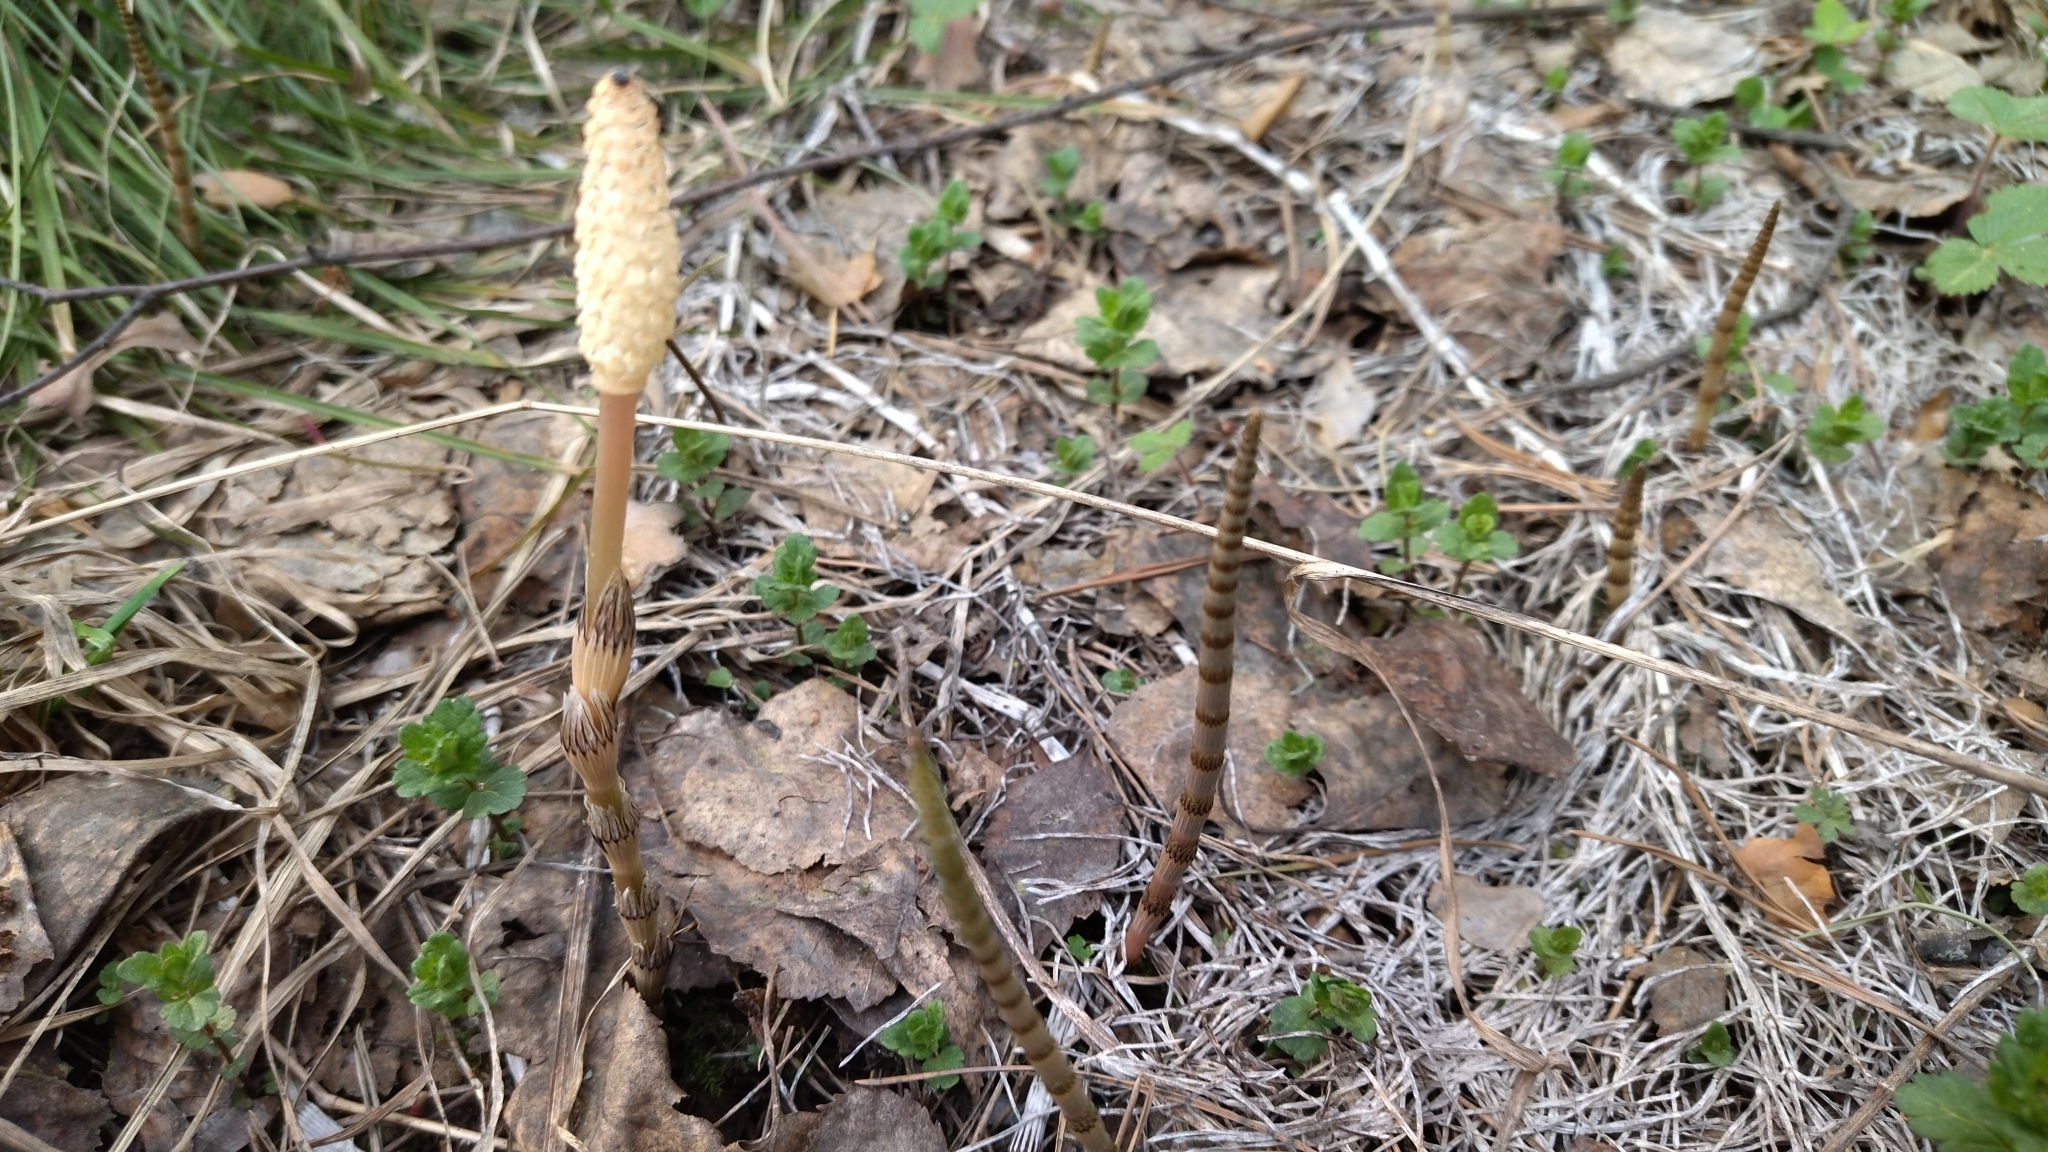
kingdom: Plantae
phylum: Tracheophyta
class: Polypodiopsida
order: Equisetales
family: Equisetaceae
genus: Equisetum
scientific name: Equisetum pratense
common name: Meadow horsetail
